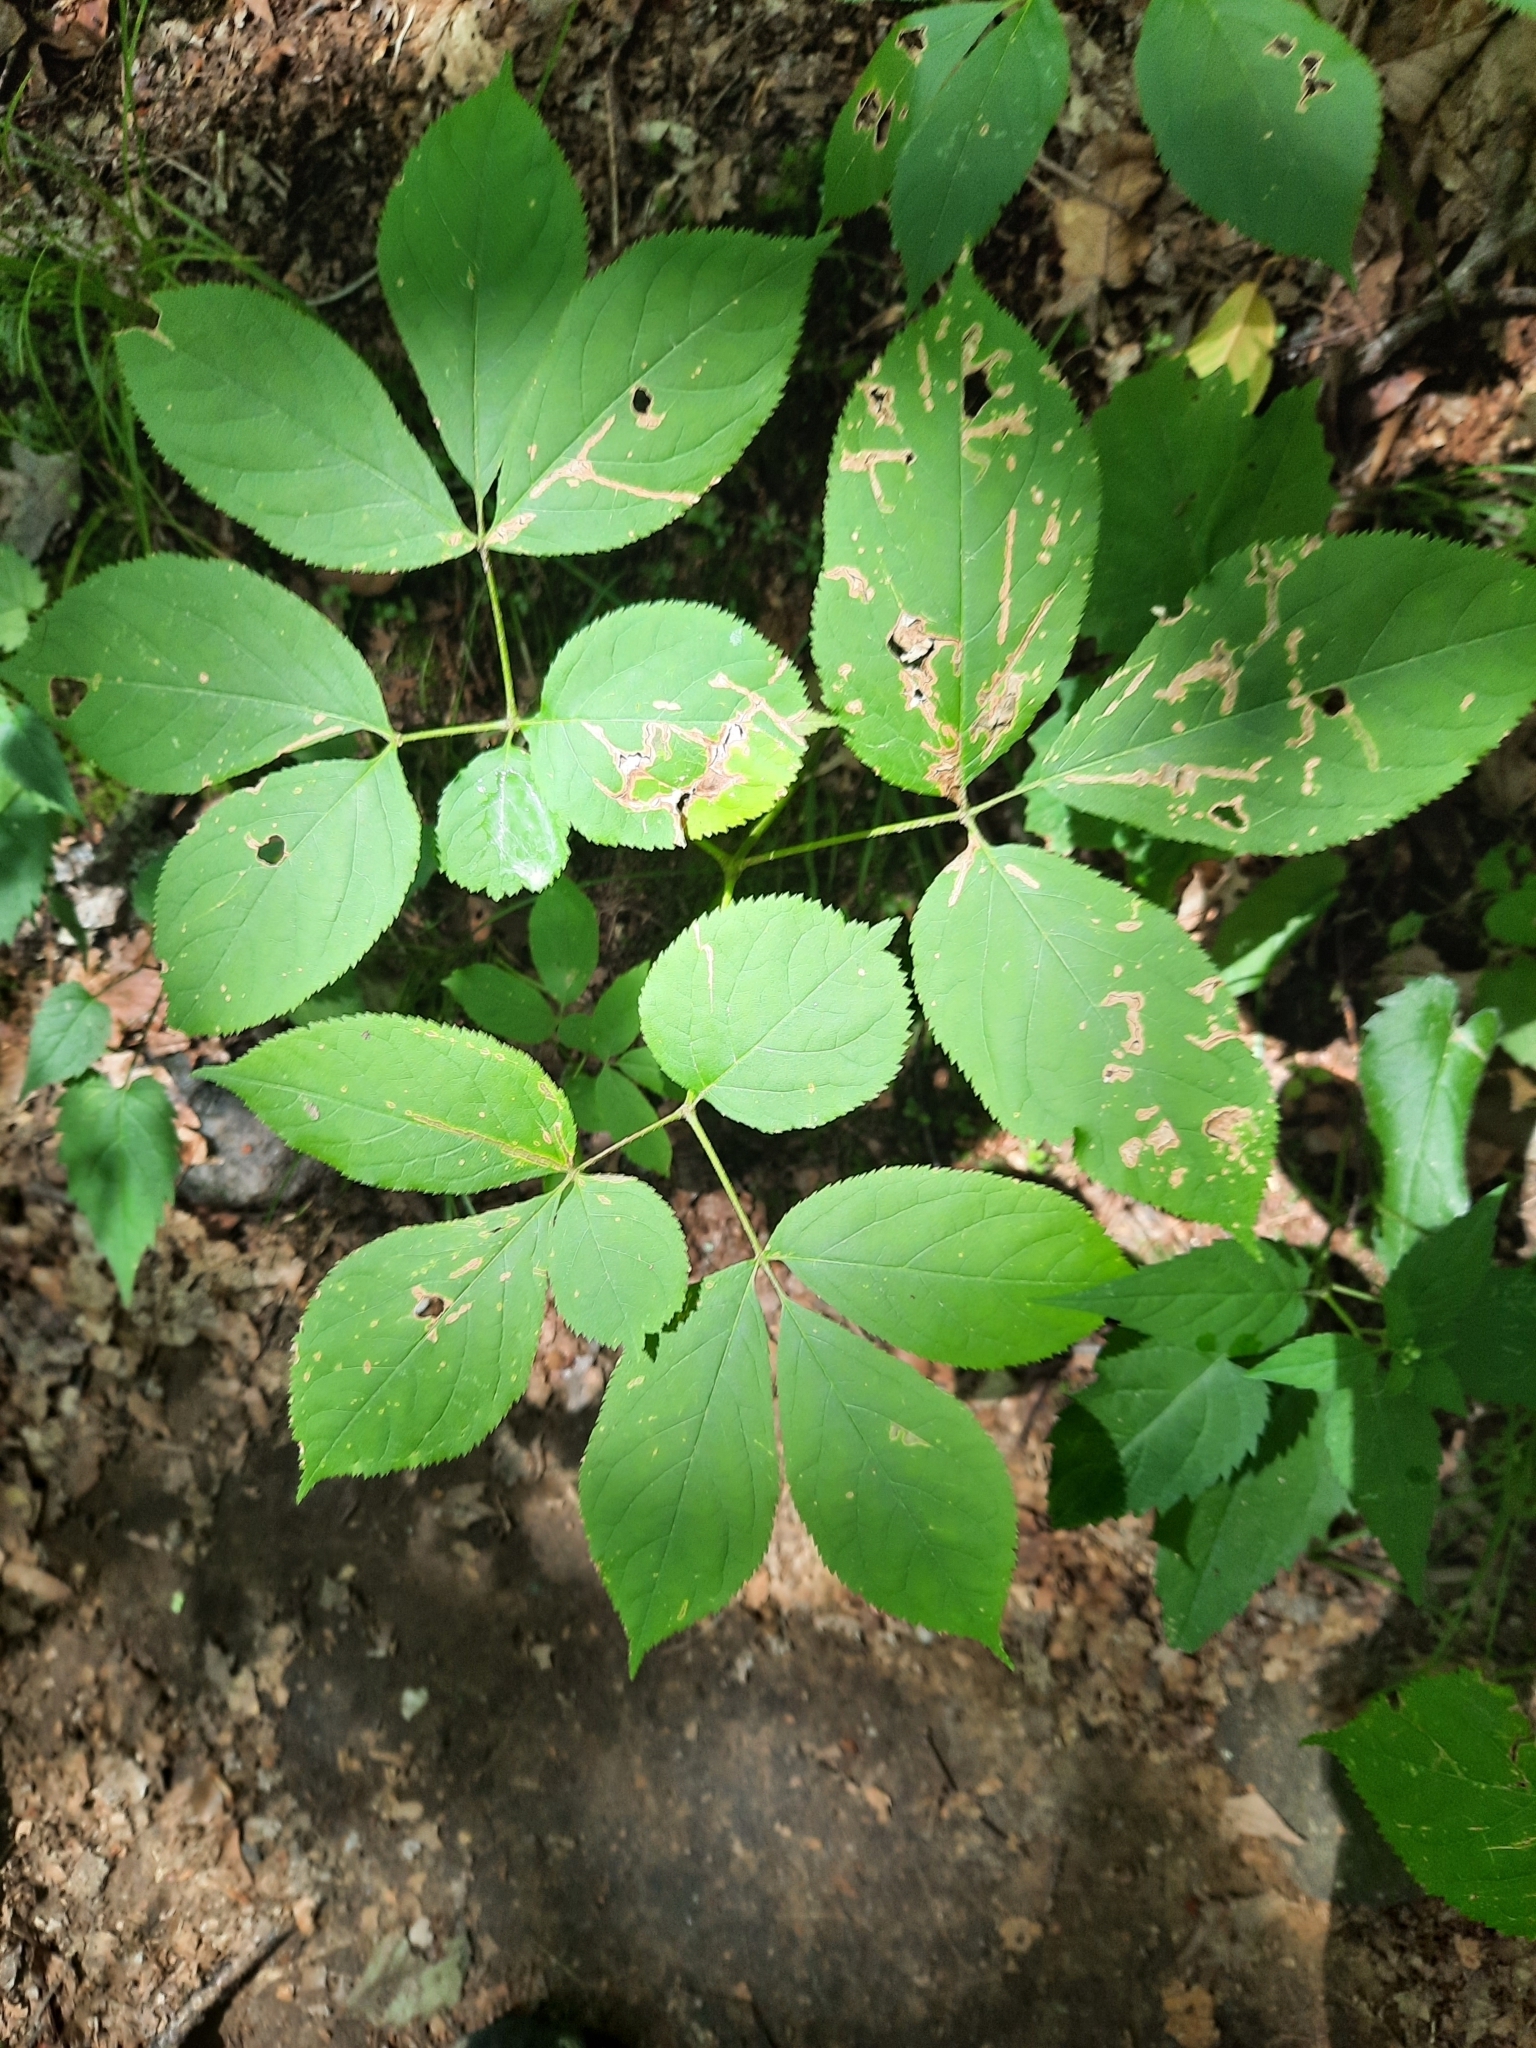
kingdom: Plantae
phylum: Tracheophyta
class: Magnoliopsida
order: Apiales
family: Araliaceae
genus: Aralia
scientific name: Aralia nudicaulis
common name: Wild sarsaparilla
